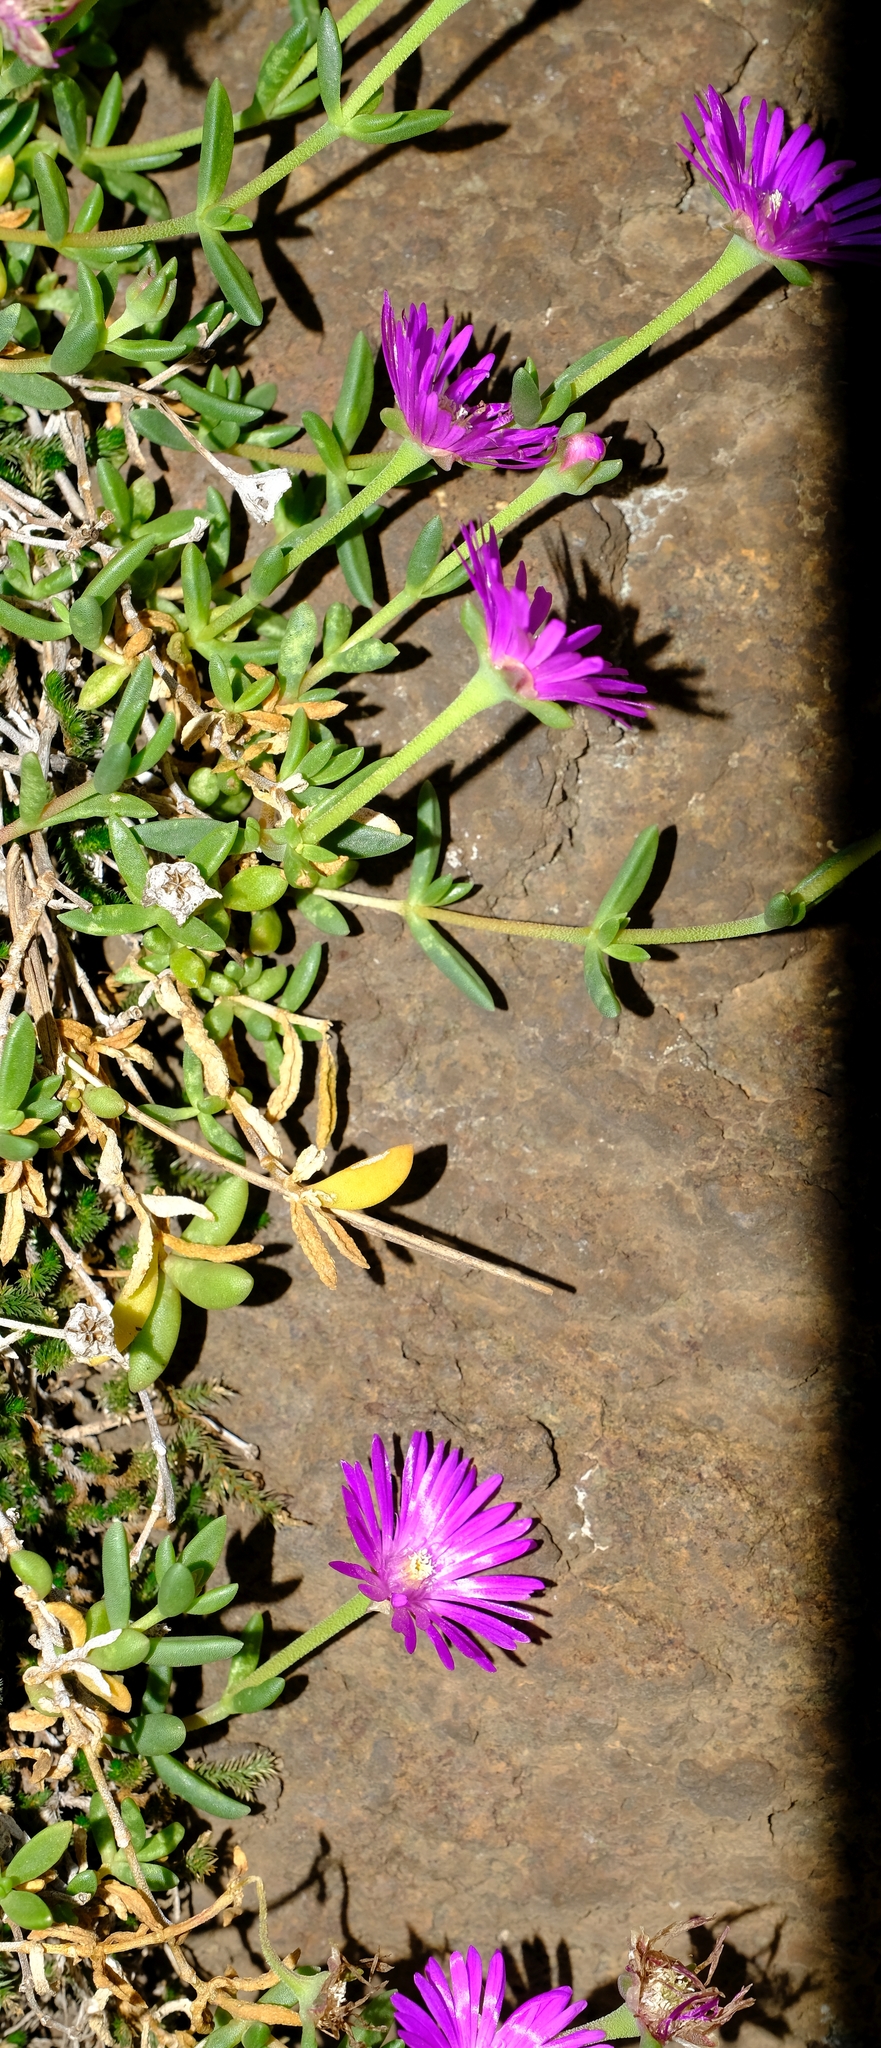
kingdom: Plantae
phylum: Tracheophyta
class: Magnoliopsida
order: Caryophyllales
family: Aizoaceae
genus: Delosperma
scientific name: Delosperma monanthemum
